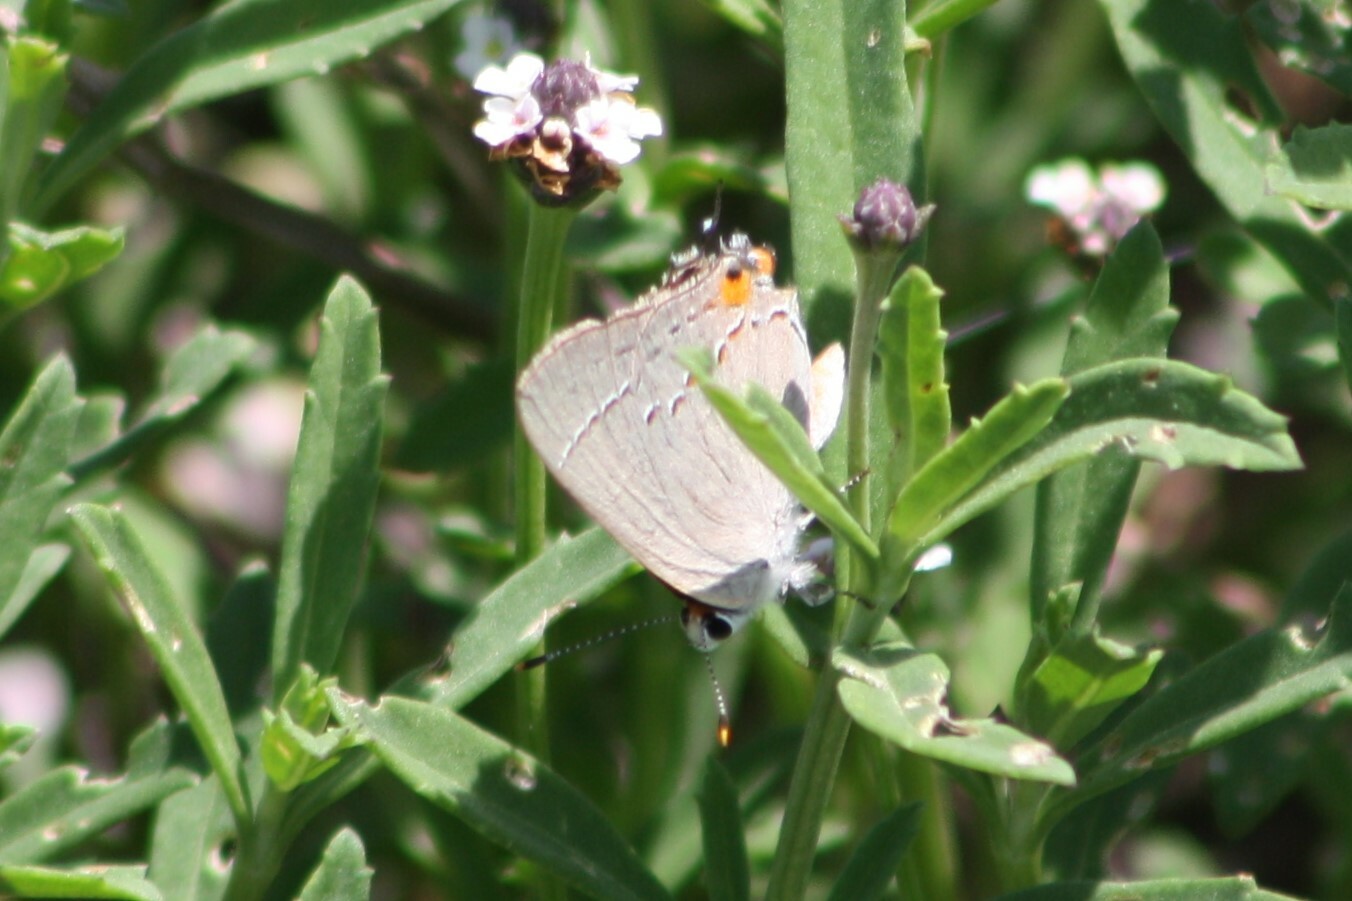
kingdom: Animalia
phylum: Arthropoda
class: Insecta
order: Lepidoptera
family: Lycaenidae
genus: Strymon
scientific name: Strymon melinus
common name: Gray hairstreak
